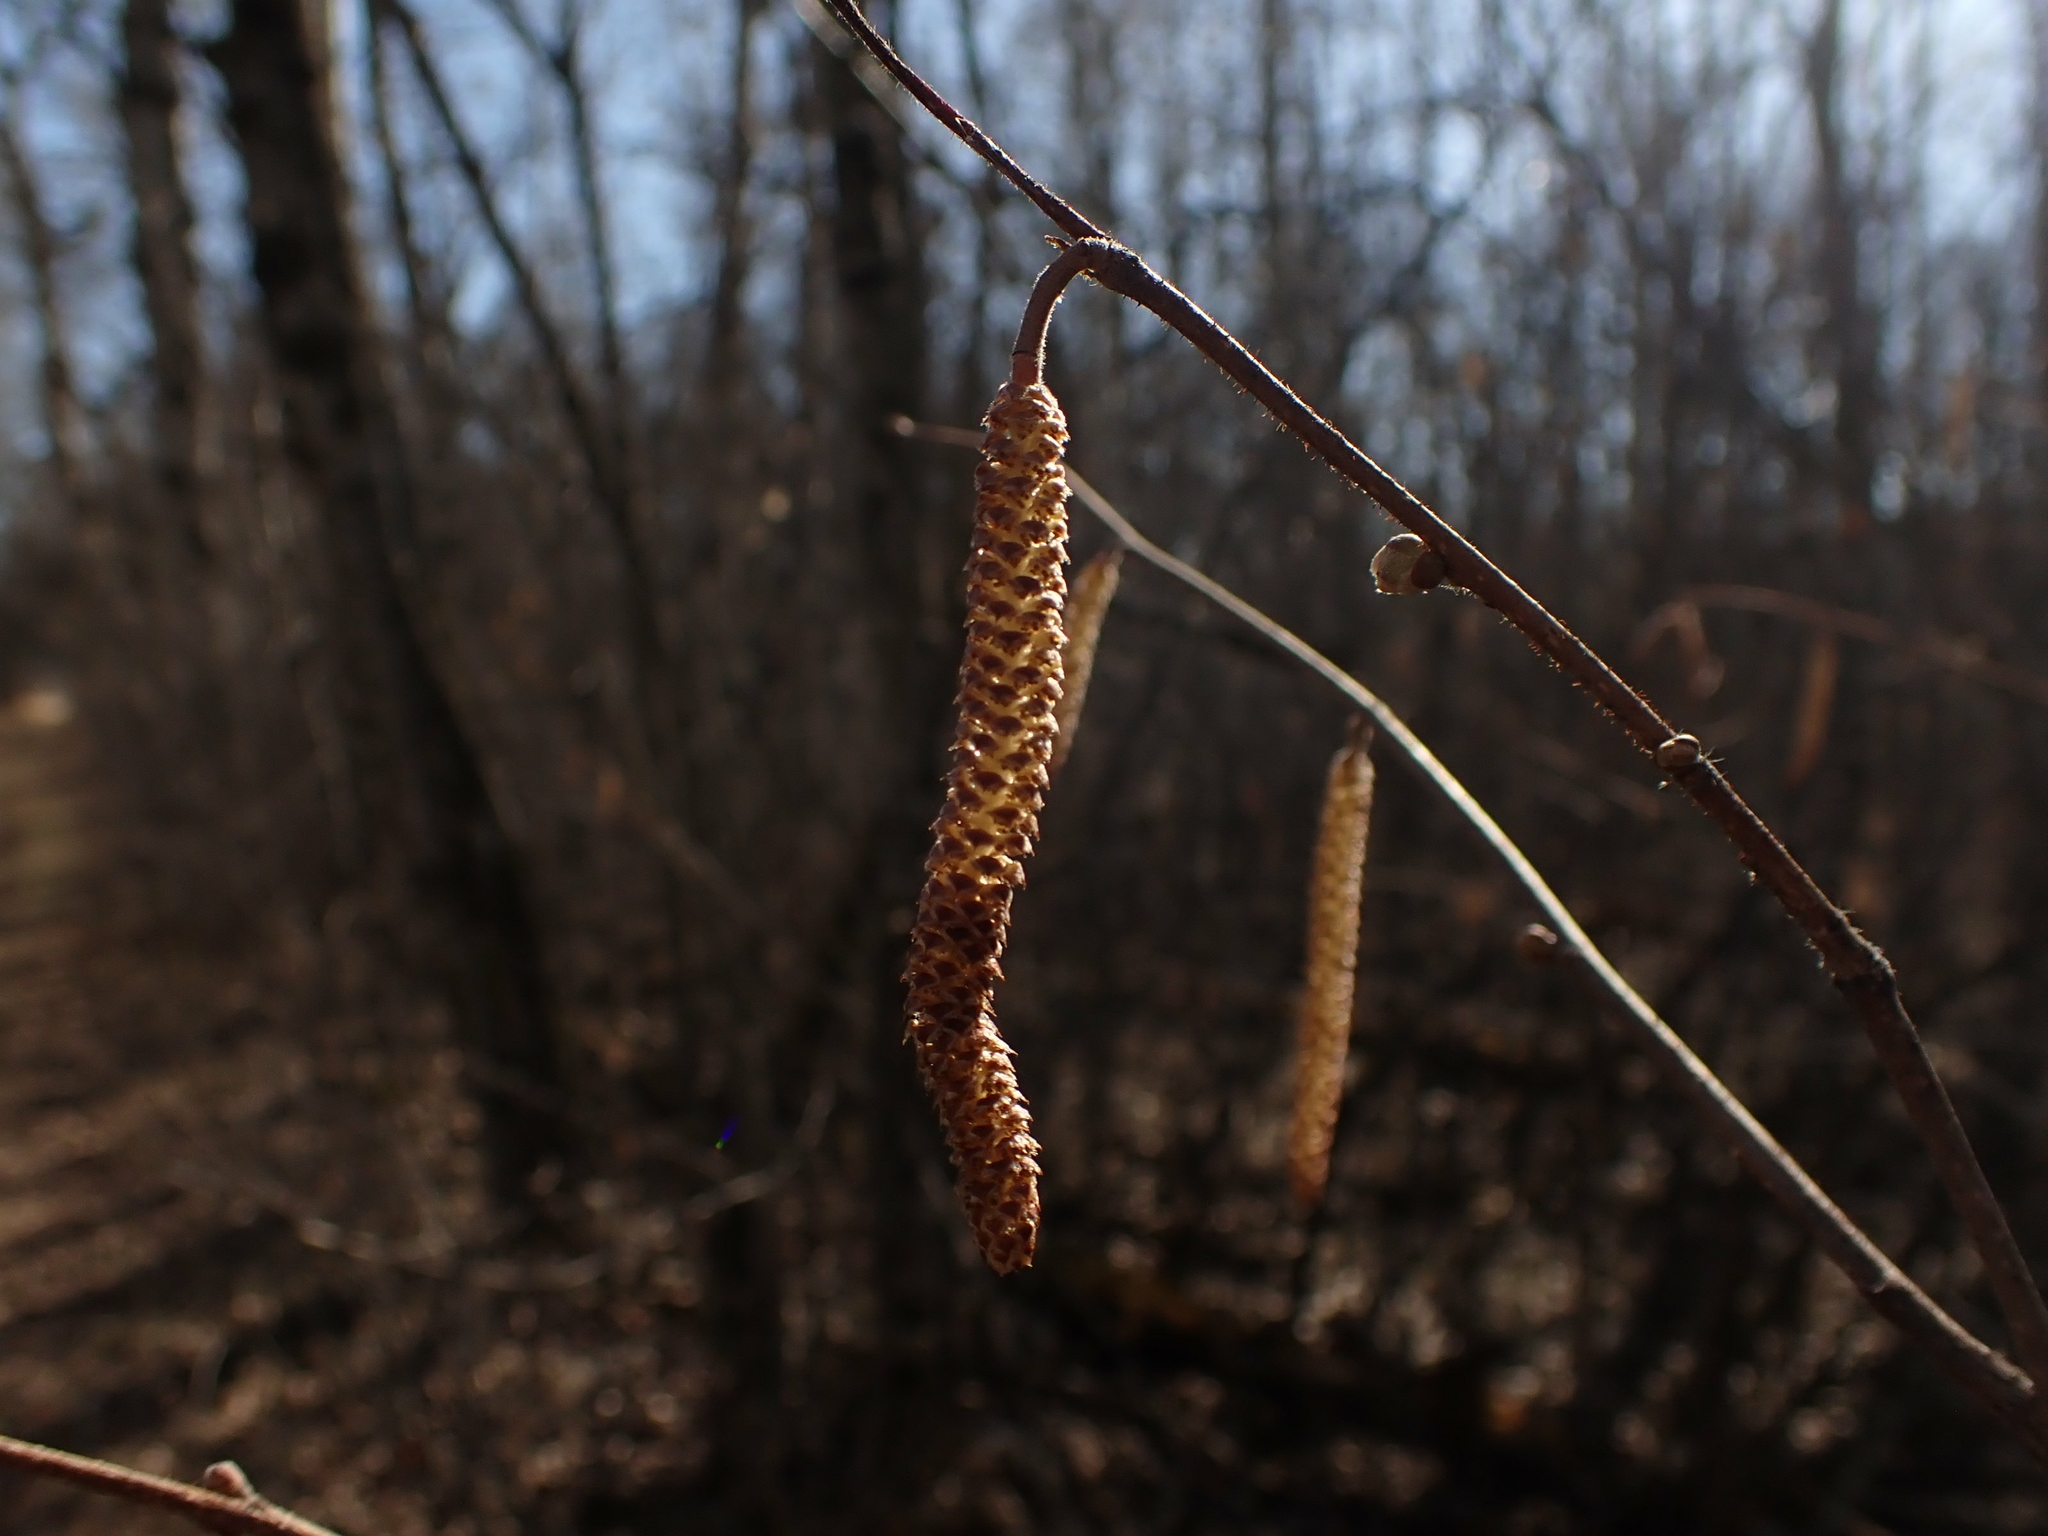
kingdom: Plantae
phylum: Tracheophyta
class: Magnoliopsida
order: Fagales
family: Betulaceae
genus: Corylus
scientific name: Corylus americana
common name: American hazel
